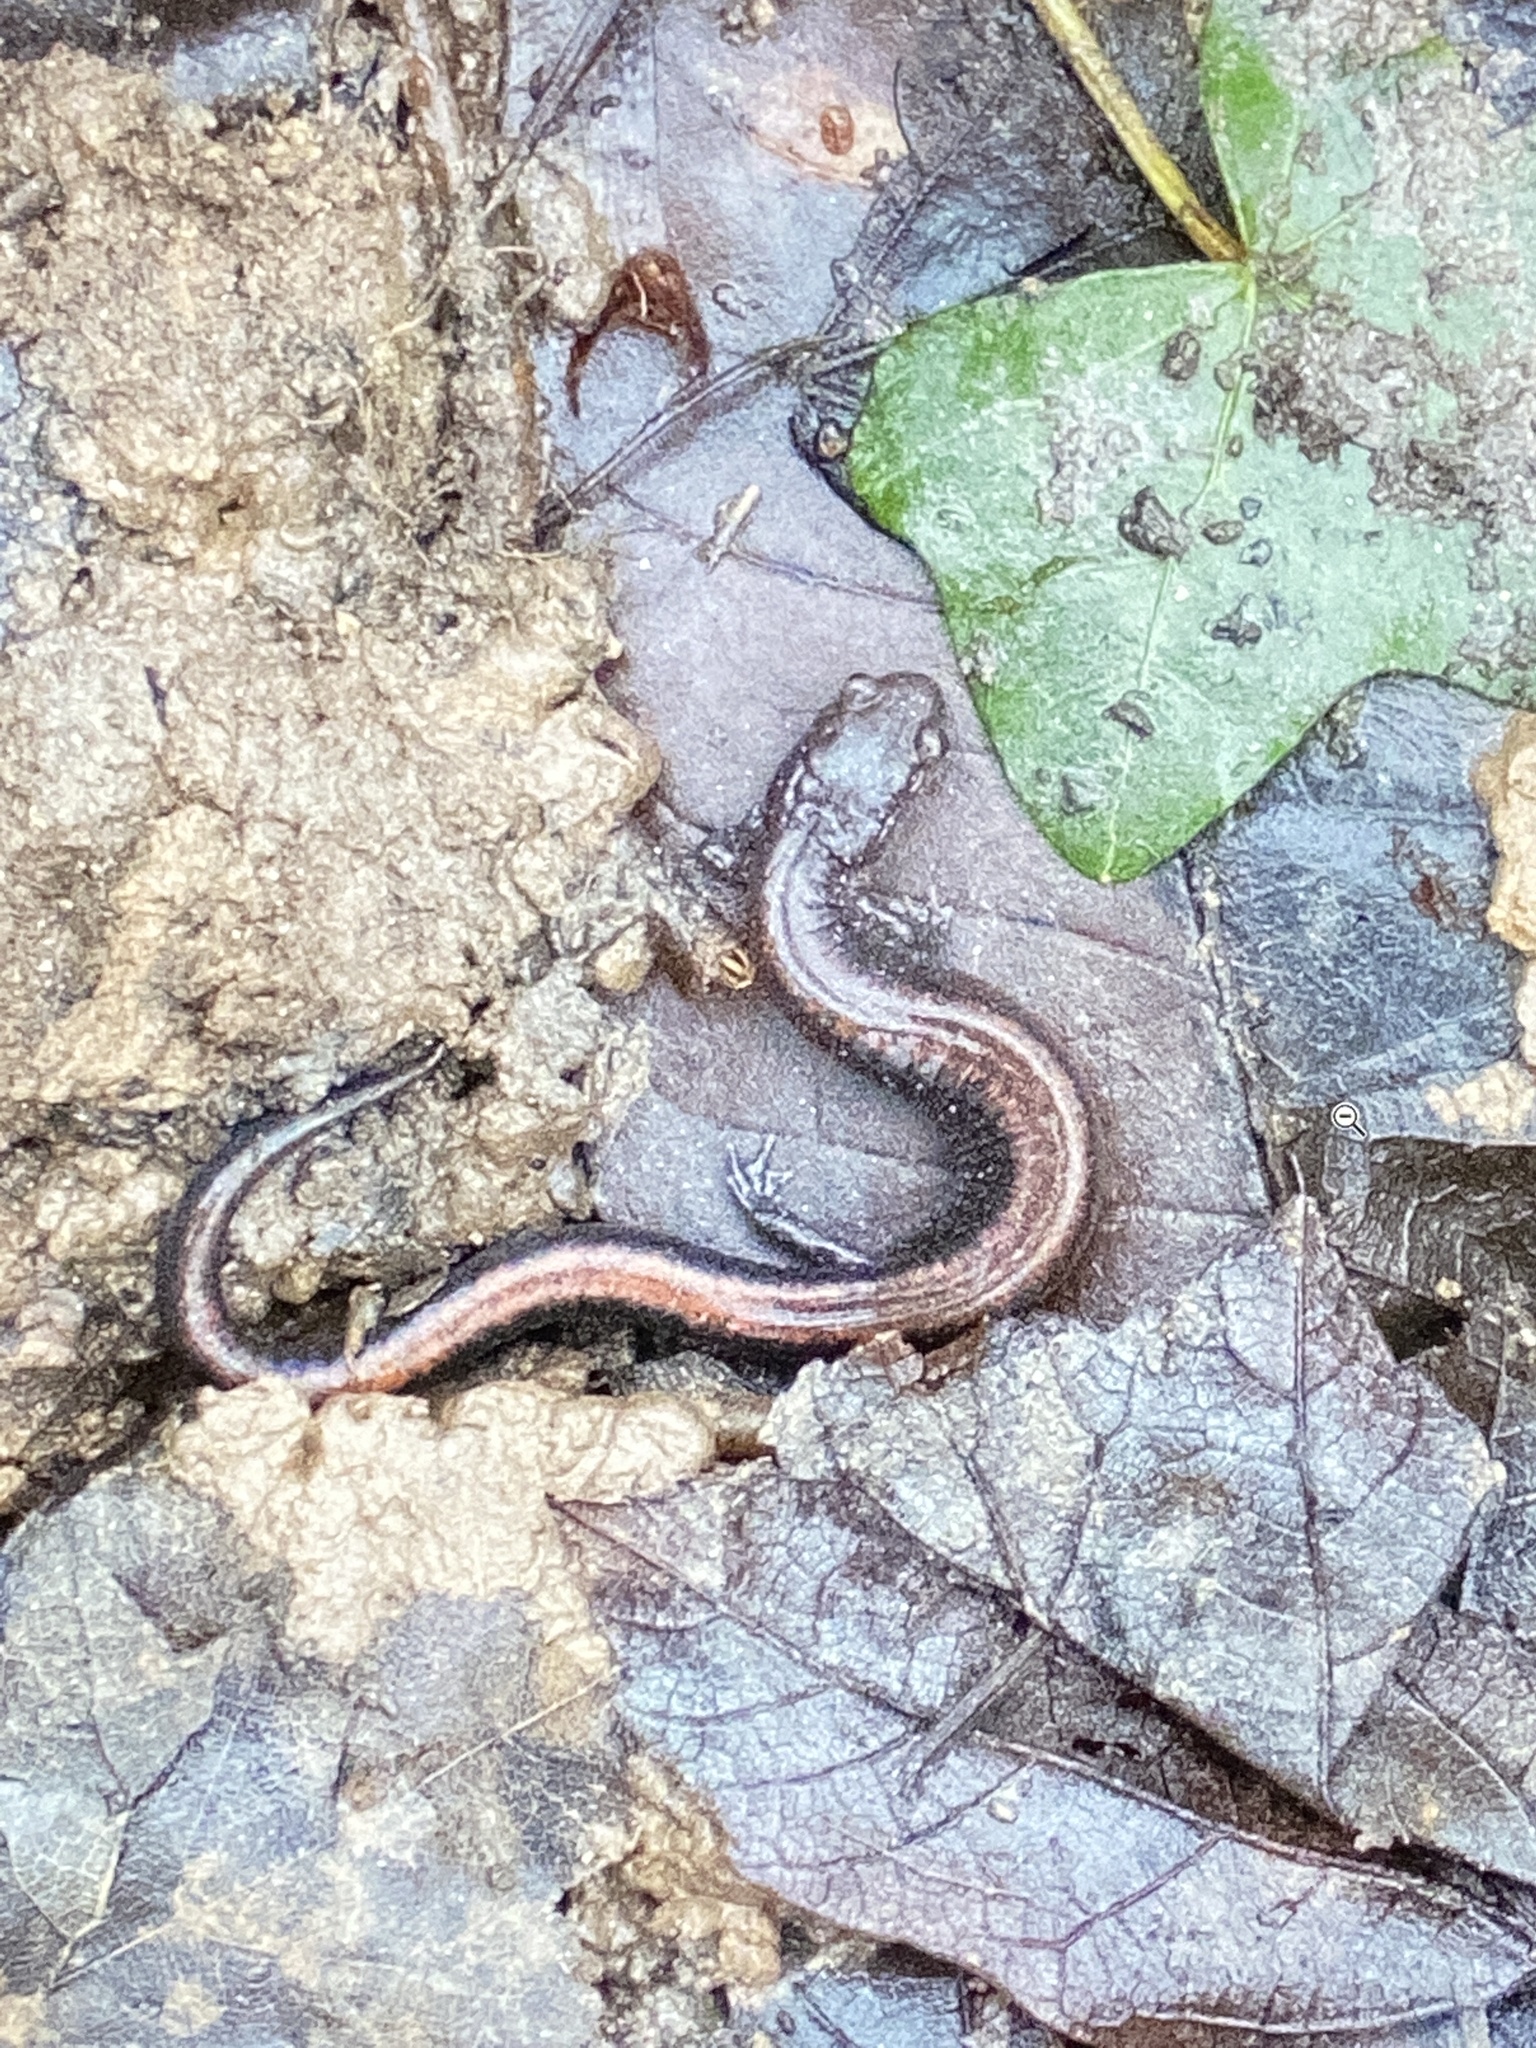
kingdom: Animalia
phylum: Chordata
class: Amphibia
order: Caudata
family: Plethodontidae
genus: Plethodon
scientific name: Plethodon serratus
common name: Southern red-backed salamander
